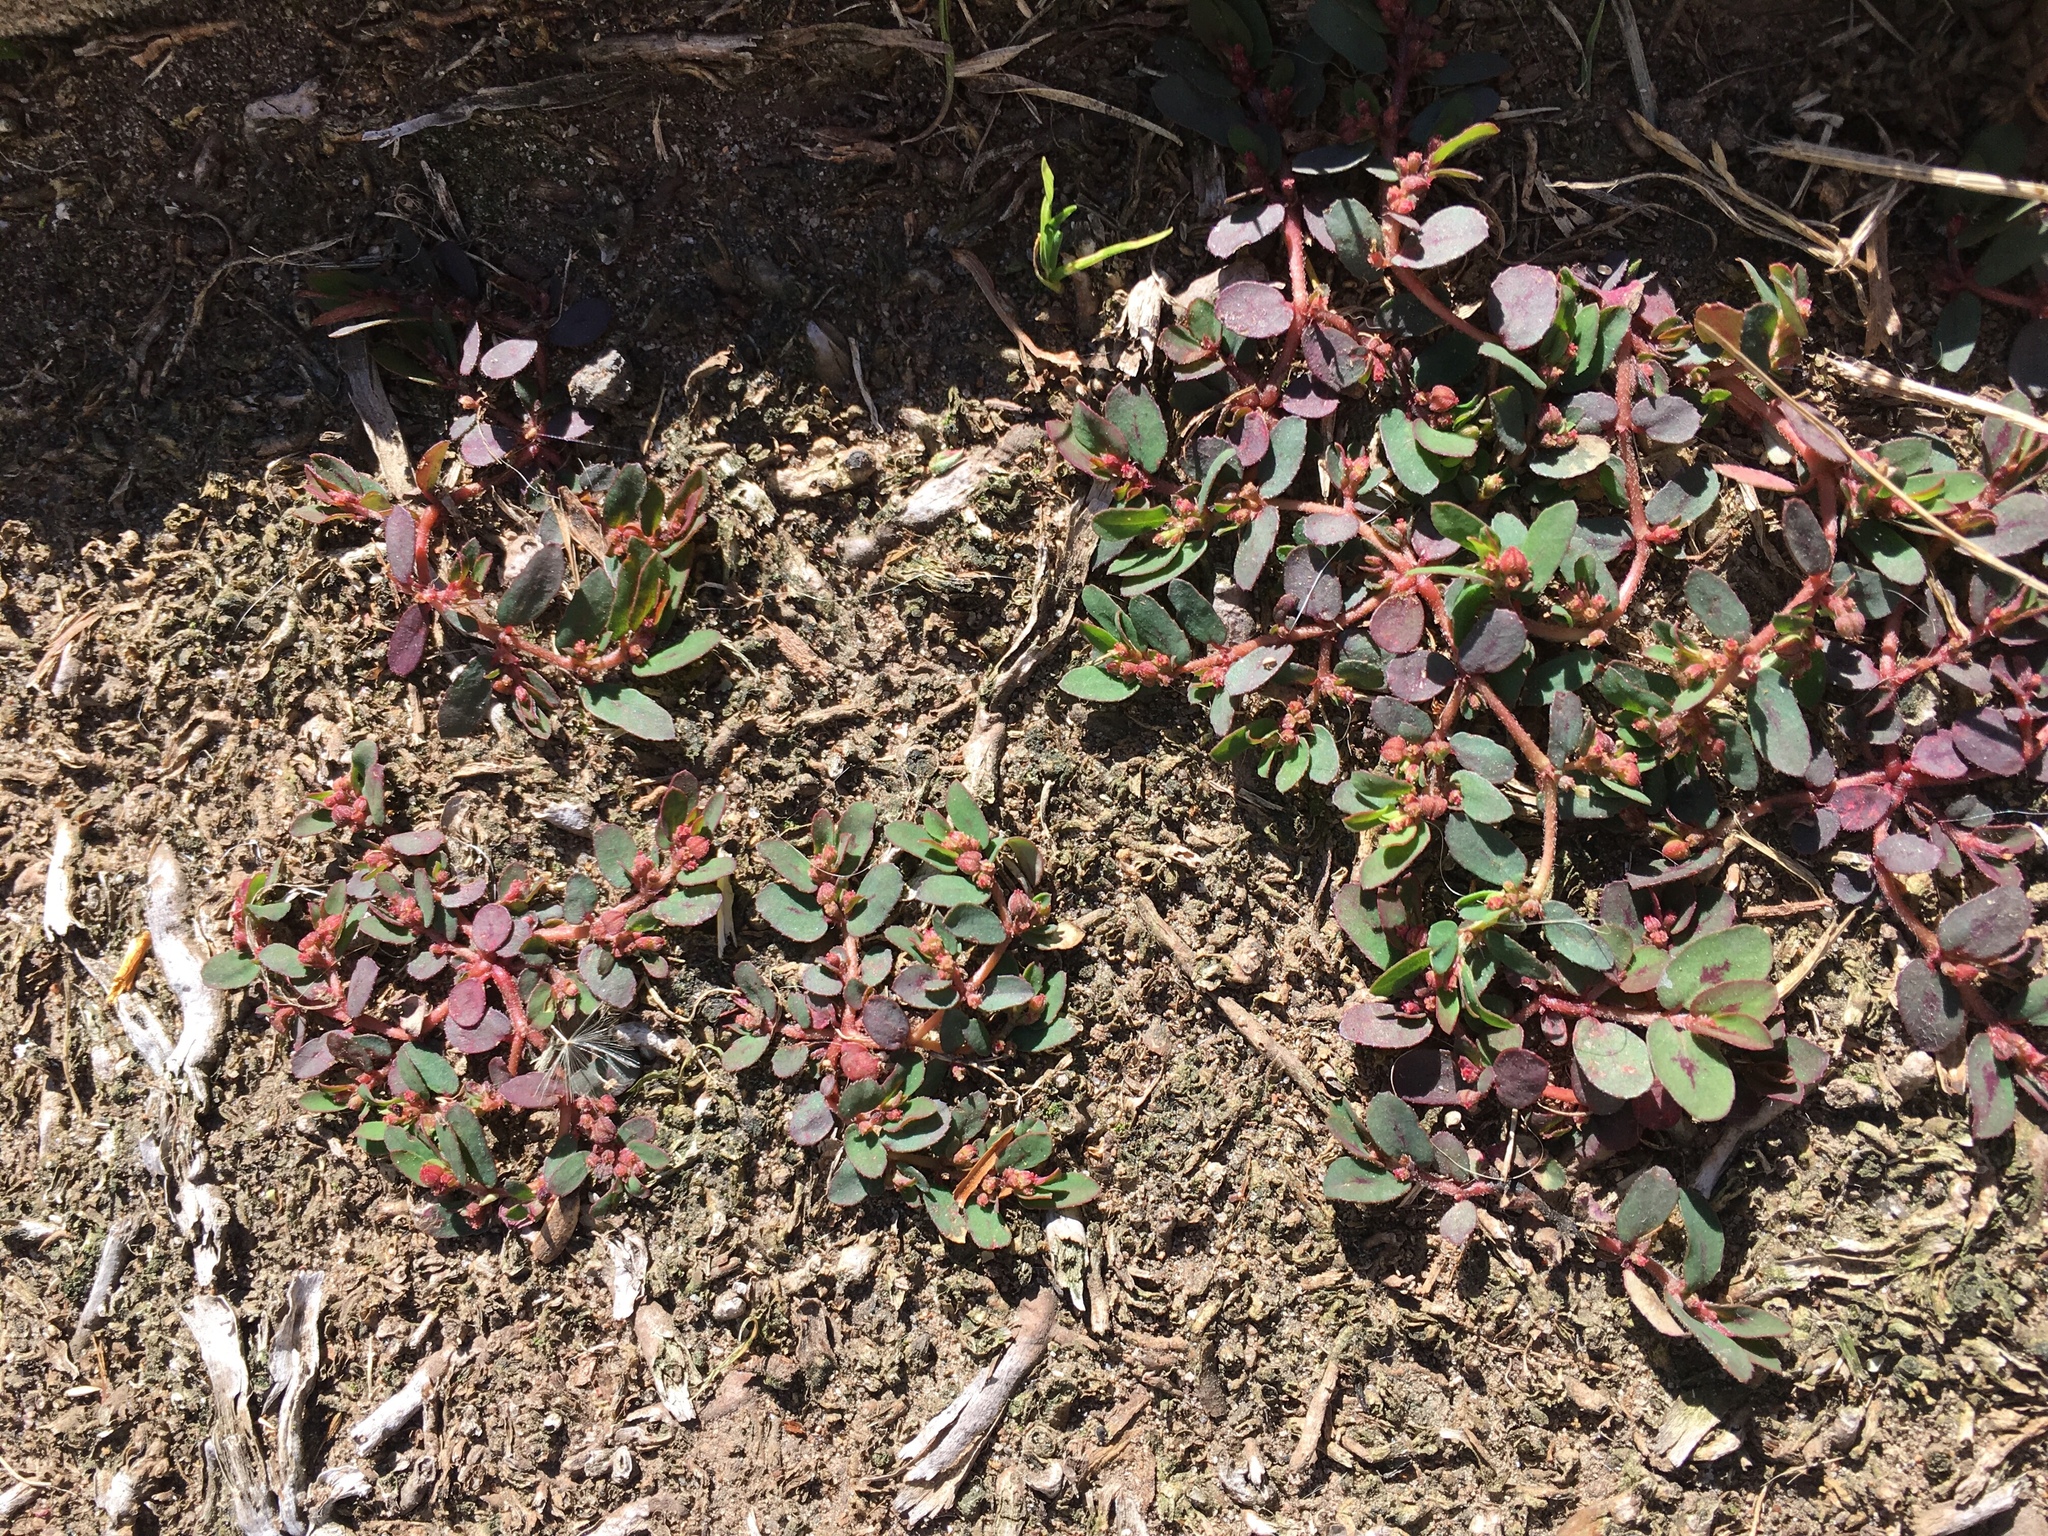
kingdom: Plantae
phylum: Tracheophyta
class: Magnoliopsida
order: Malpighiales
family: Euphorbiaceae
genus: Euphorbia
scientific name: Euphorbia maculata
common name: Spotted spurge
